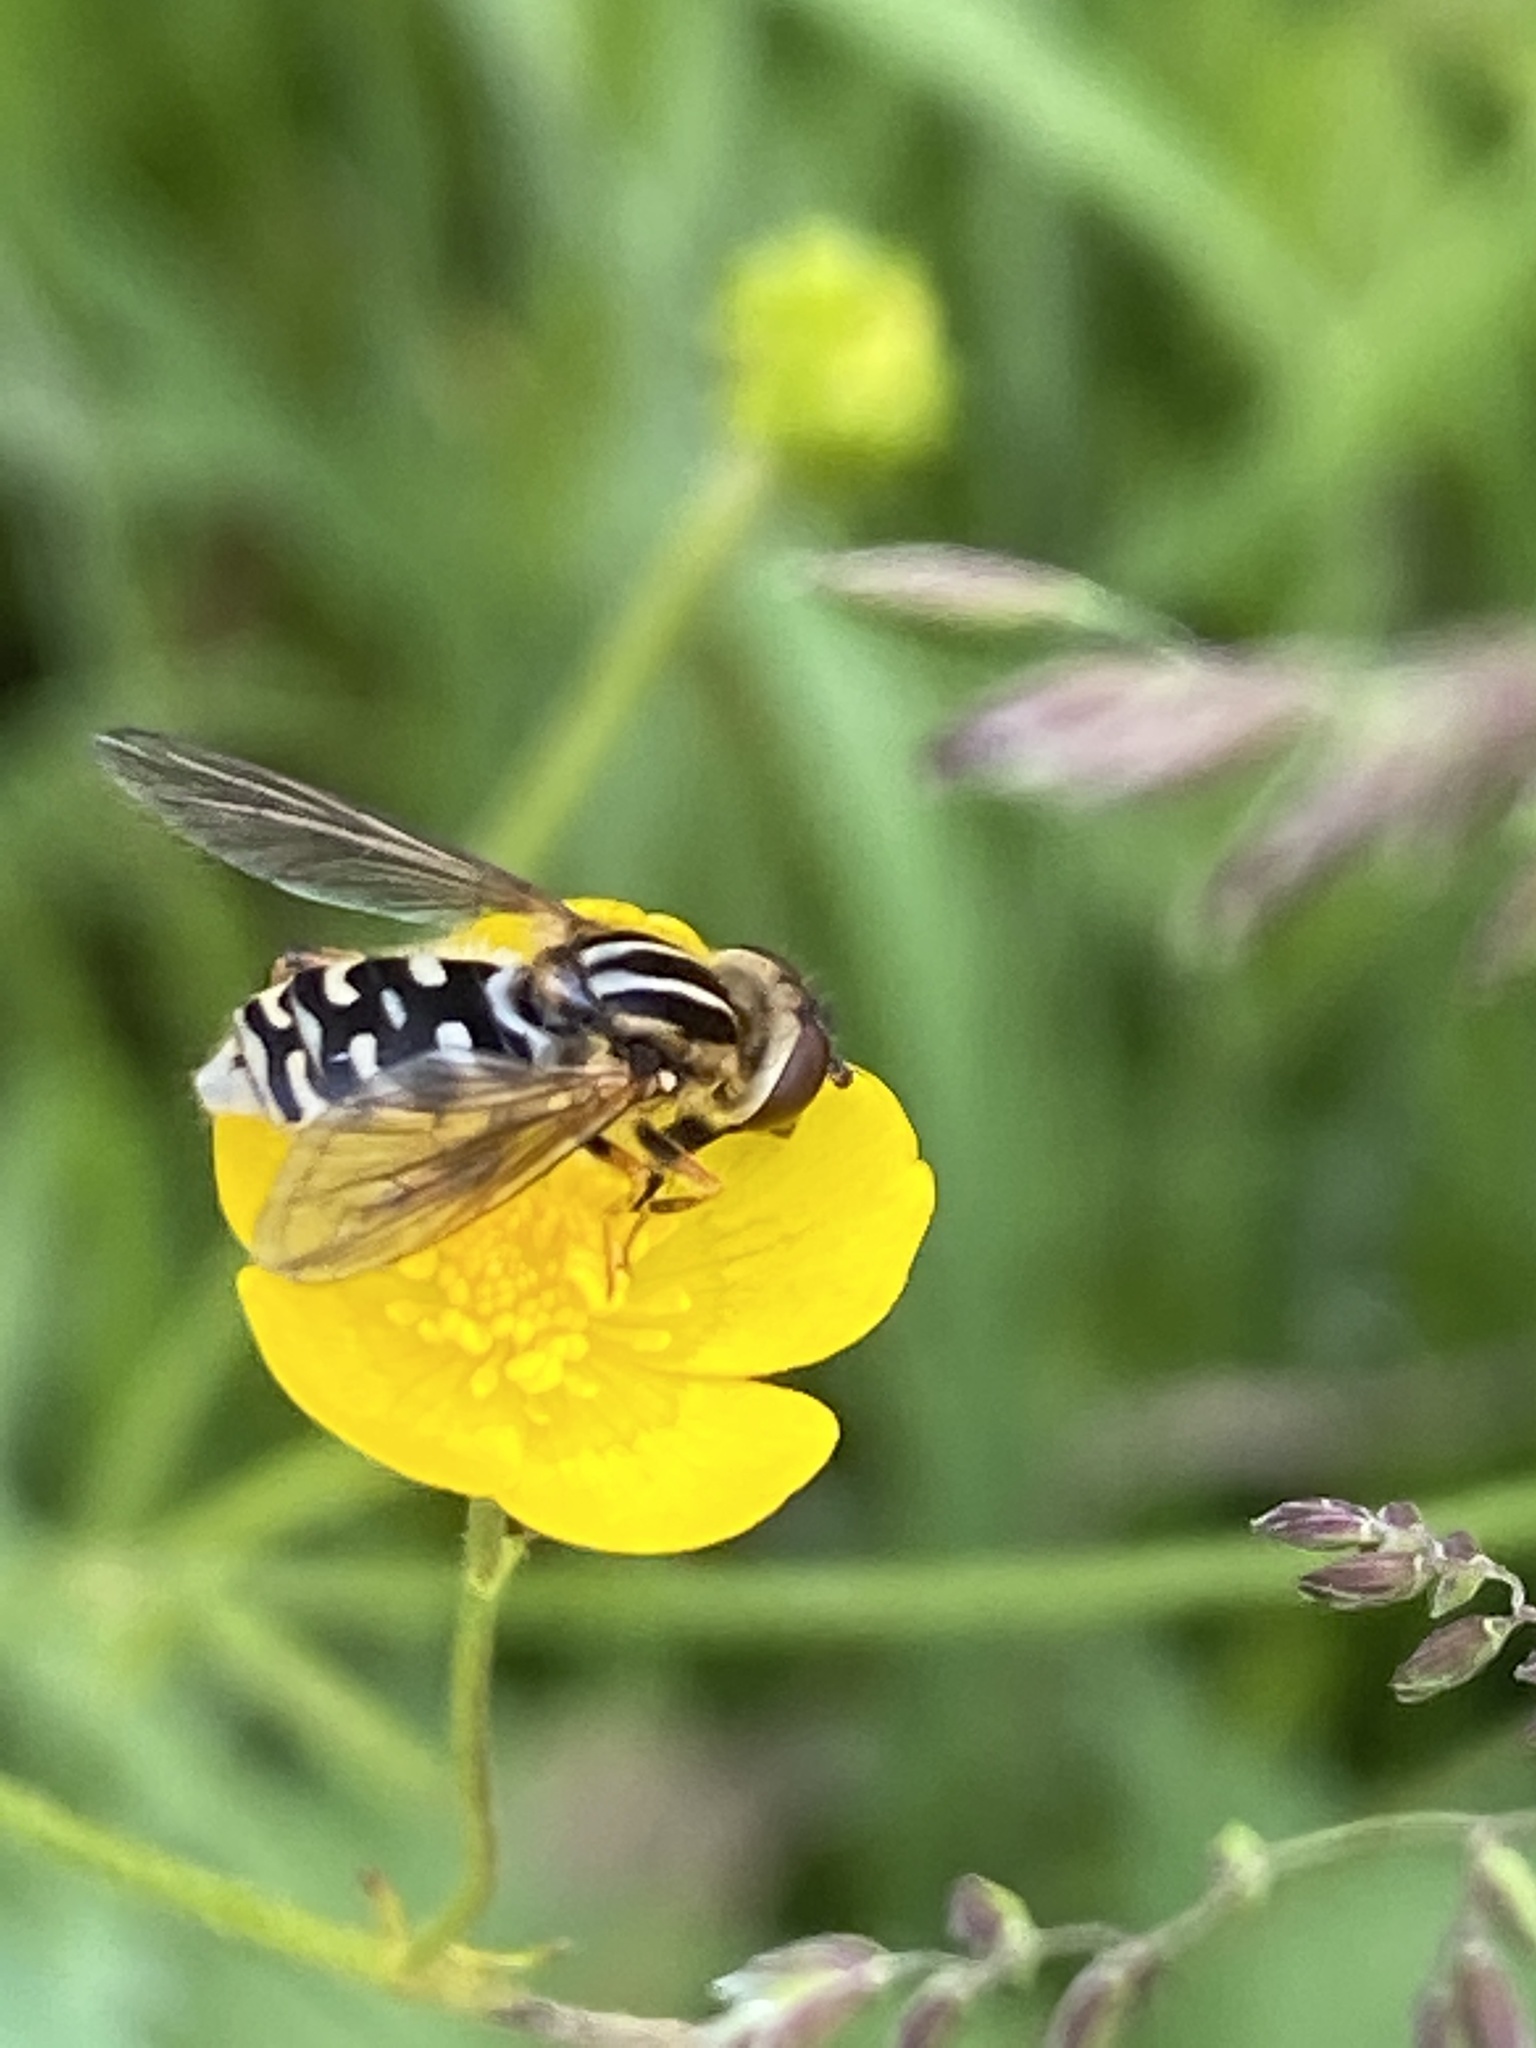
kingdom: Animalia
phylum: Arthropoda
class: Insecta
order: Diptera
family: Syrphidae
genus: Eurimyia
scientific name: Eurimyia lineatus
